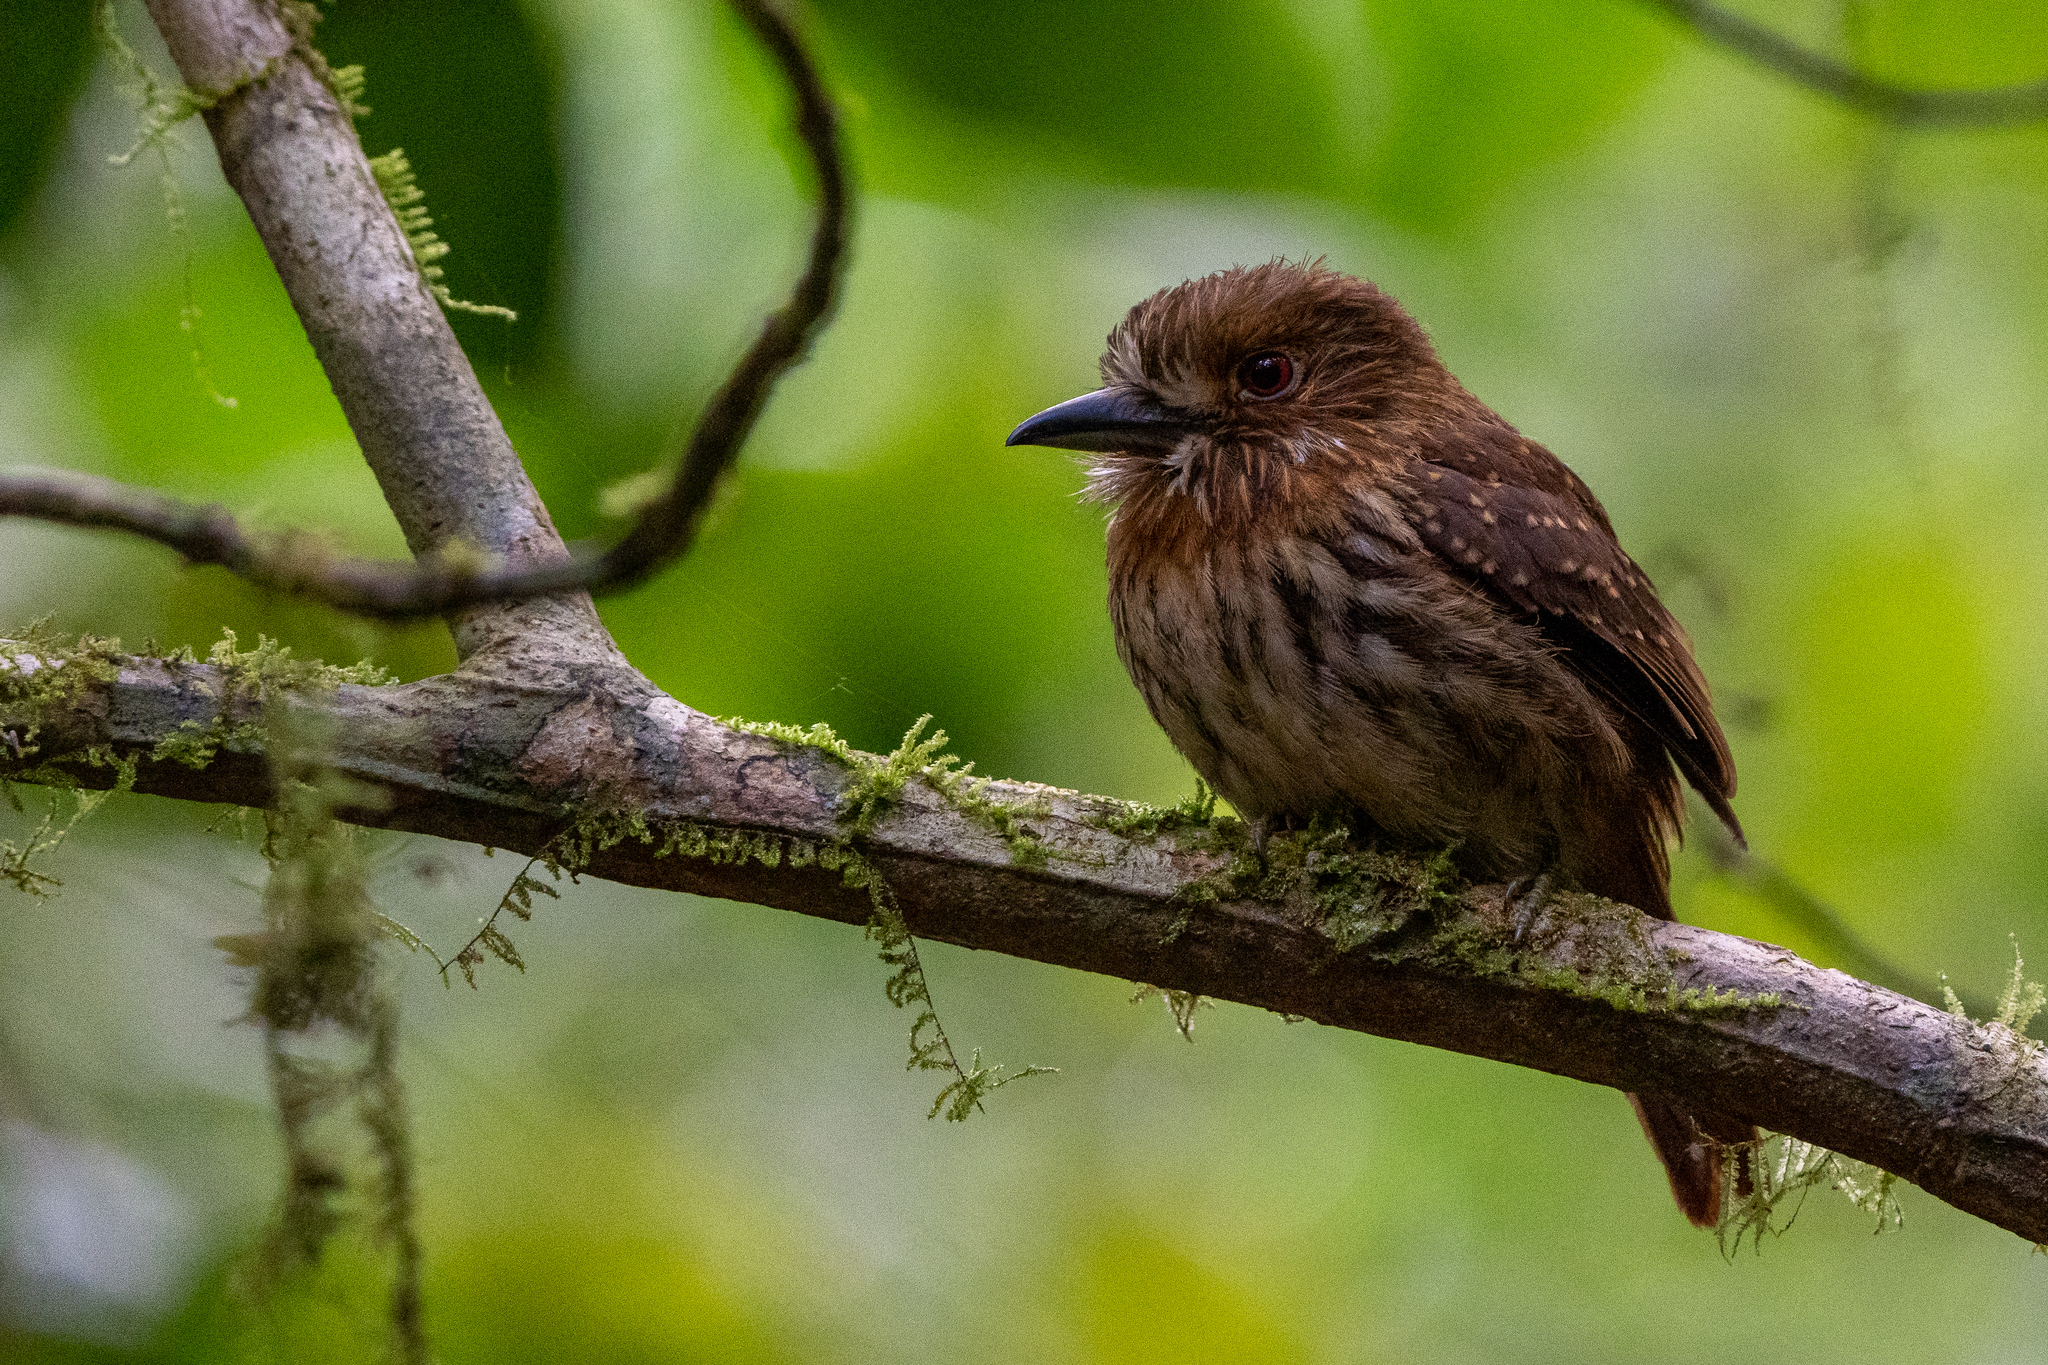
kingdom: Animalia
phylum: Chordata
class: Aves
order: Piciformes
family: Bucconidae
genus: Malacoptila
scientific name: Malacoptila panamensis
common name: White-whiskered puffbird
